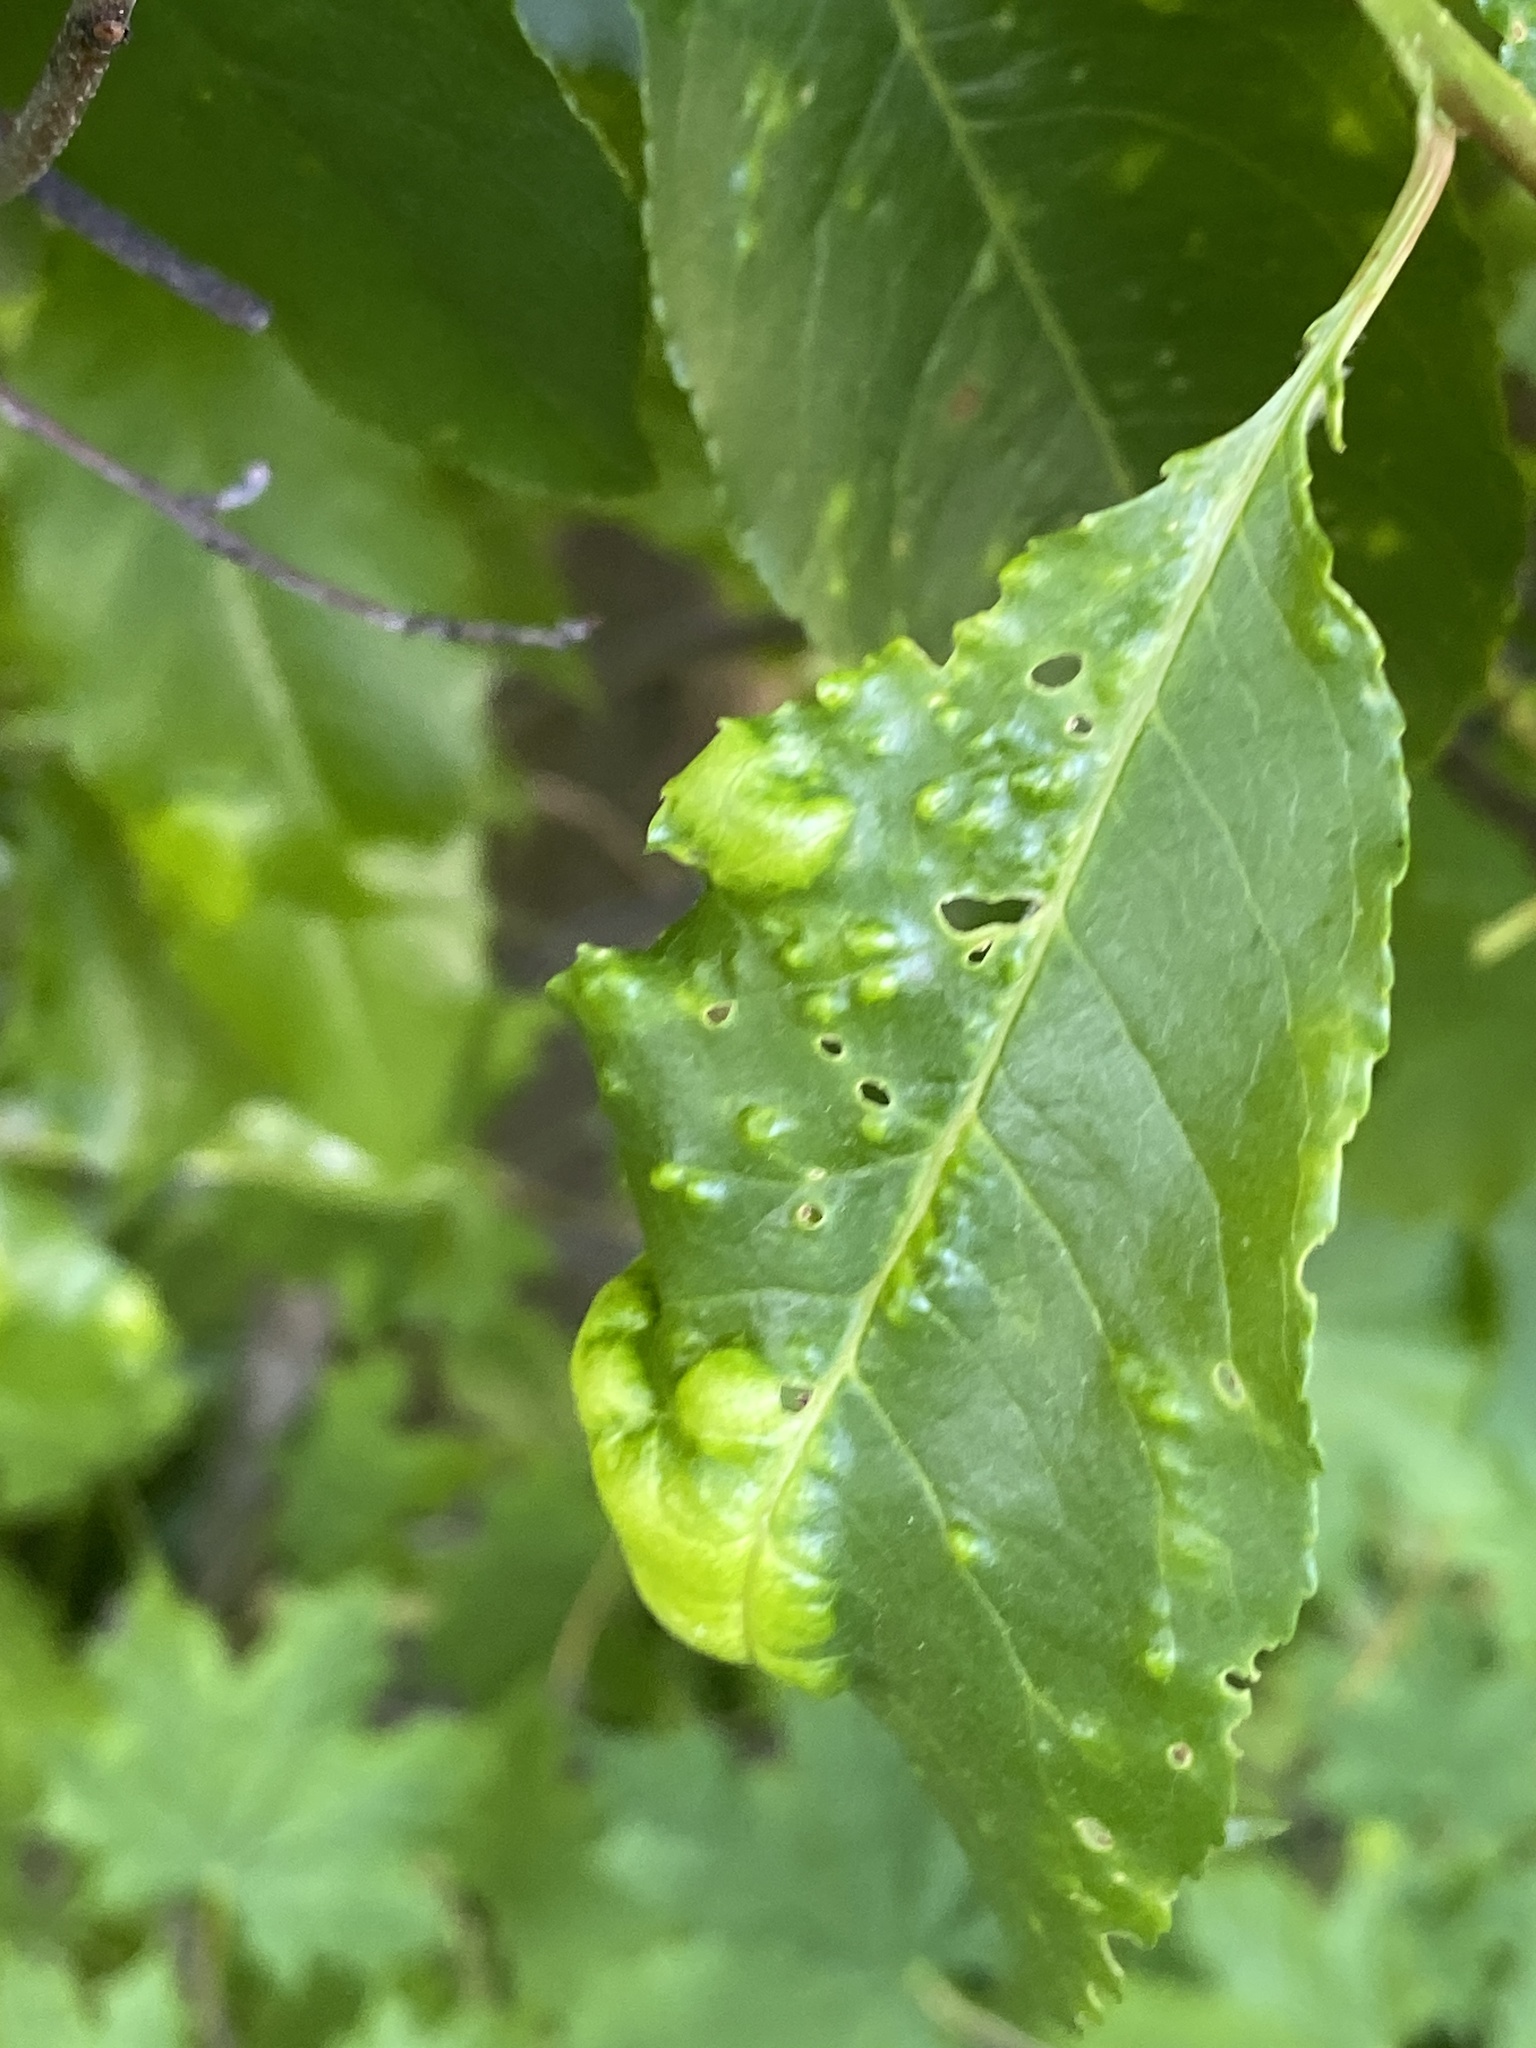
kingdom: Fungi
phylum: Ascomycota
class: Taphrinomycetes
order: Taphrinales
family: Taphrinaceae
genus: Taphrina
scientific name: Taphrina farlowii
